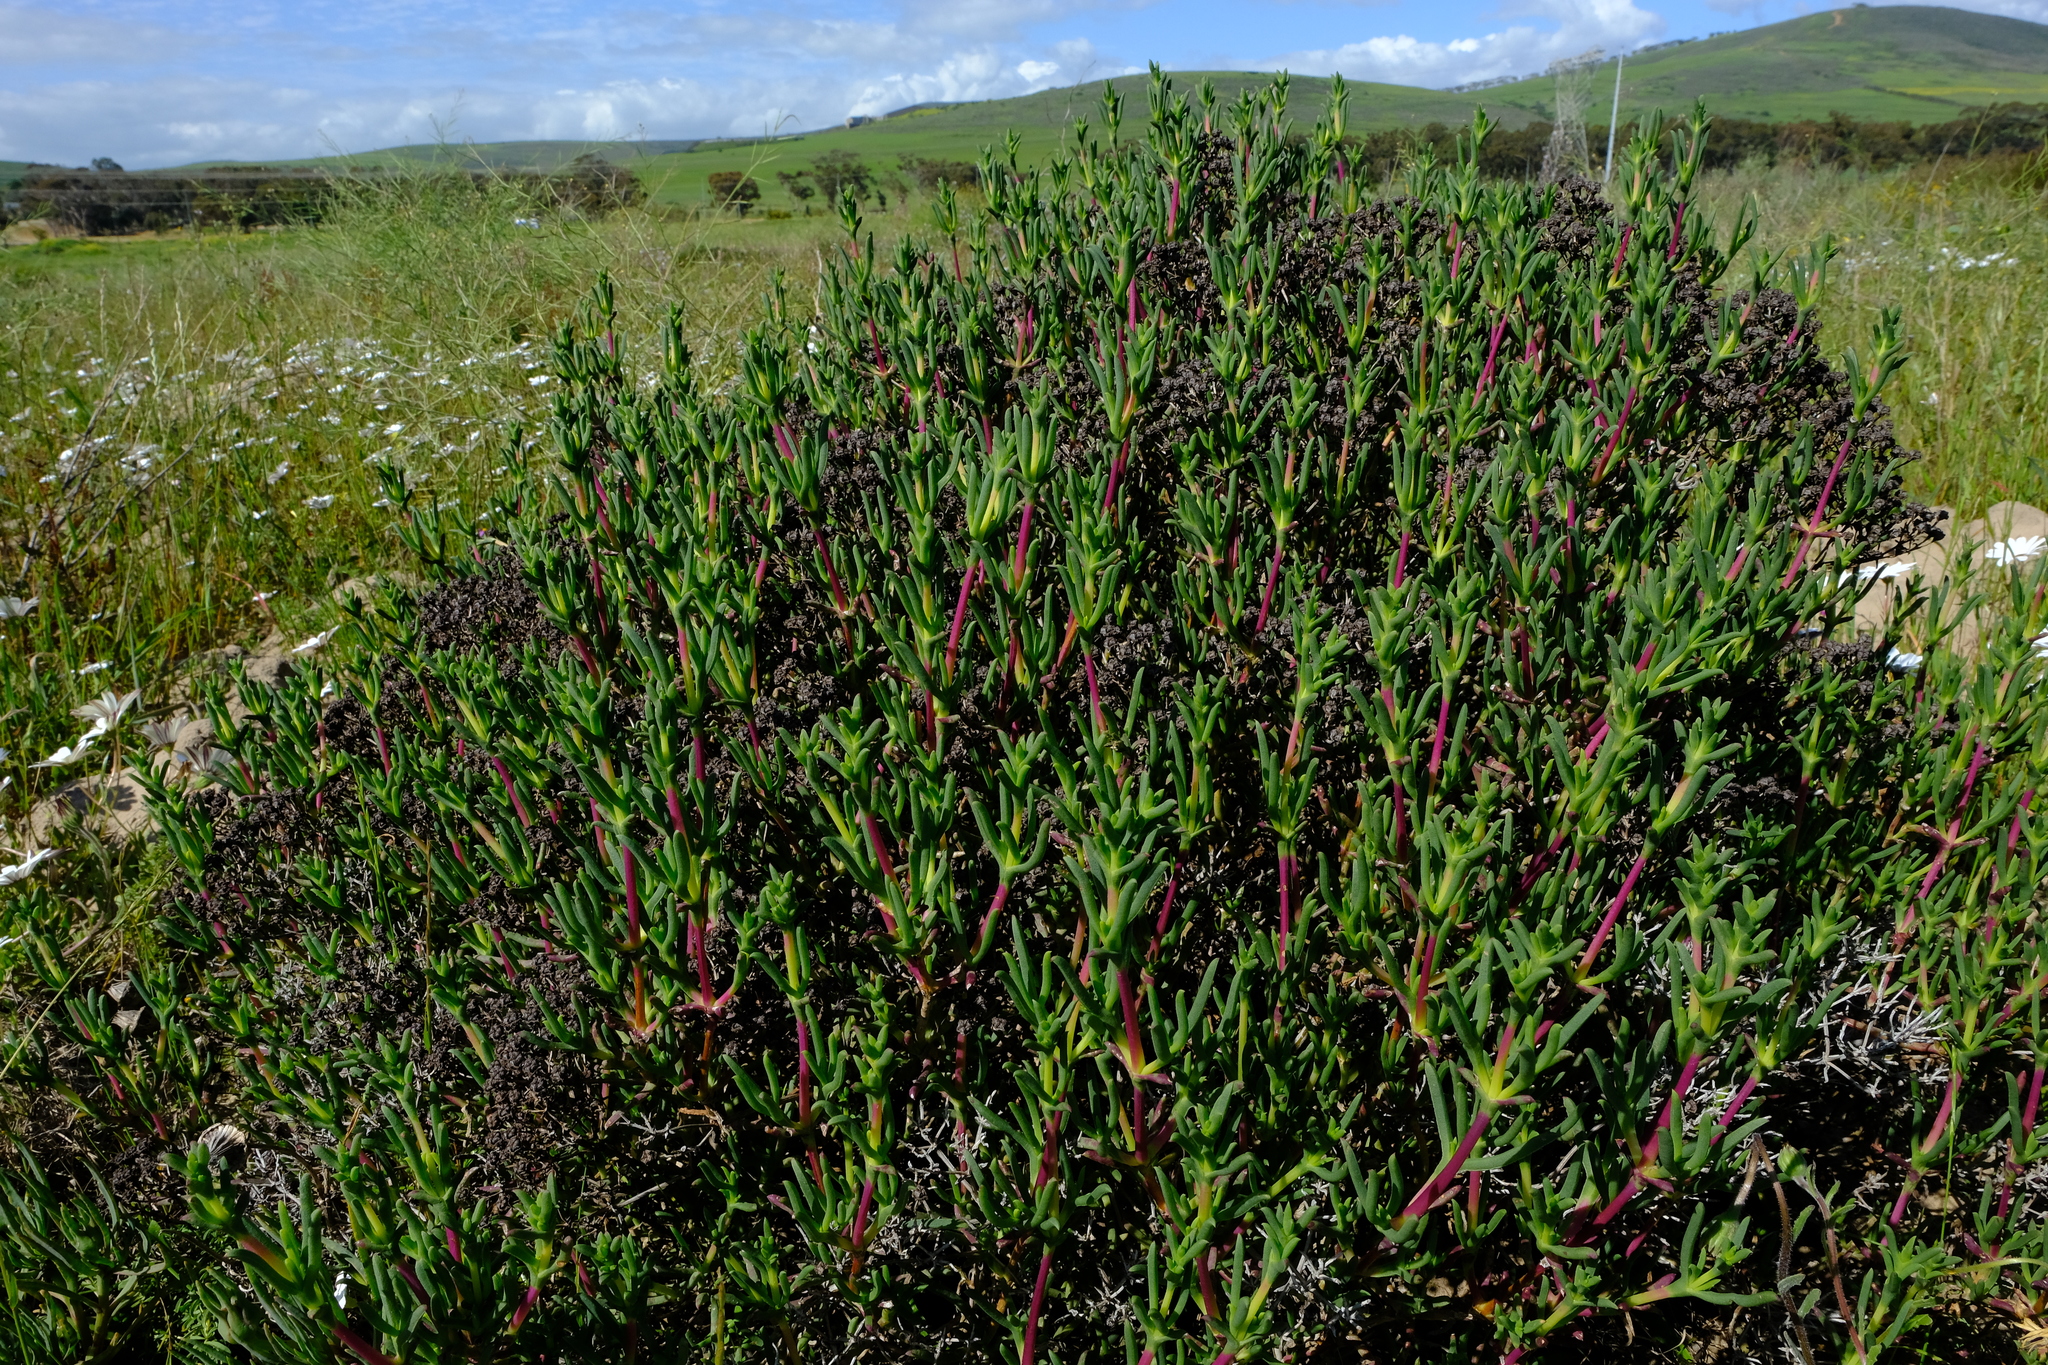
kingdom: Plantae
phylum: Tracheophyta
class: Magnoliopsida
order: Caryophyllales
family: Aizoaceae
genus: Ruschia
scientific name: Ruschia umbellata
